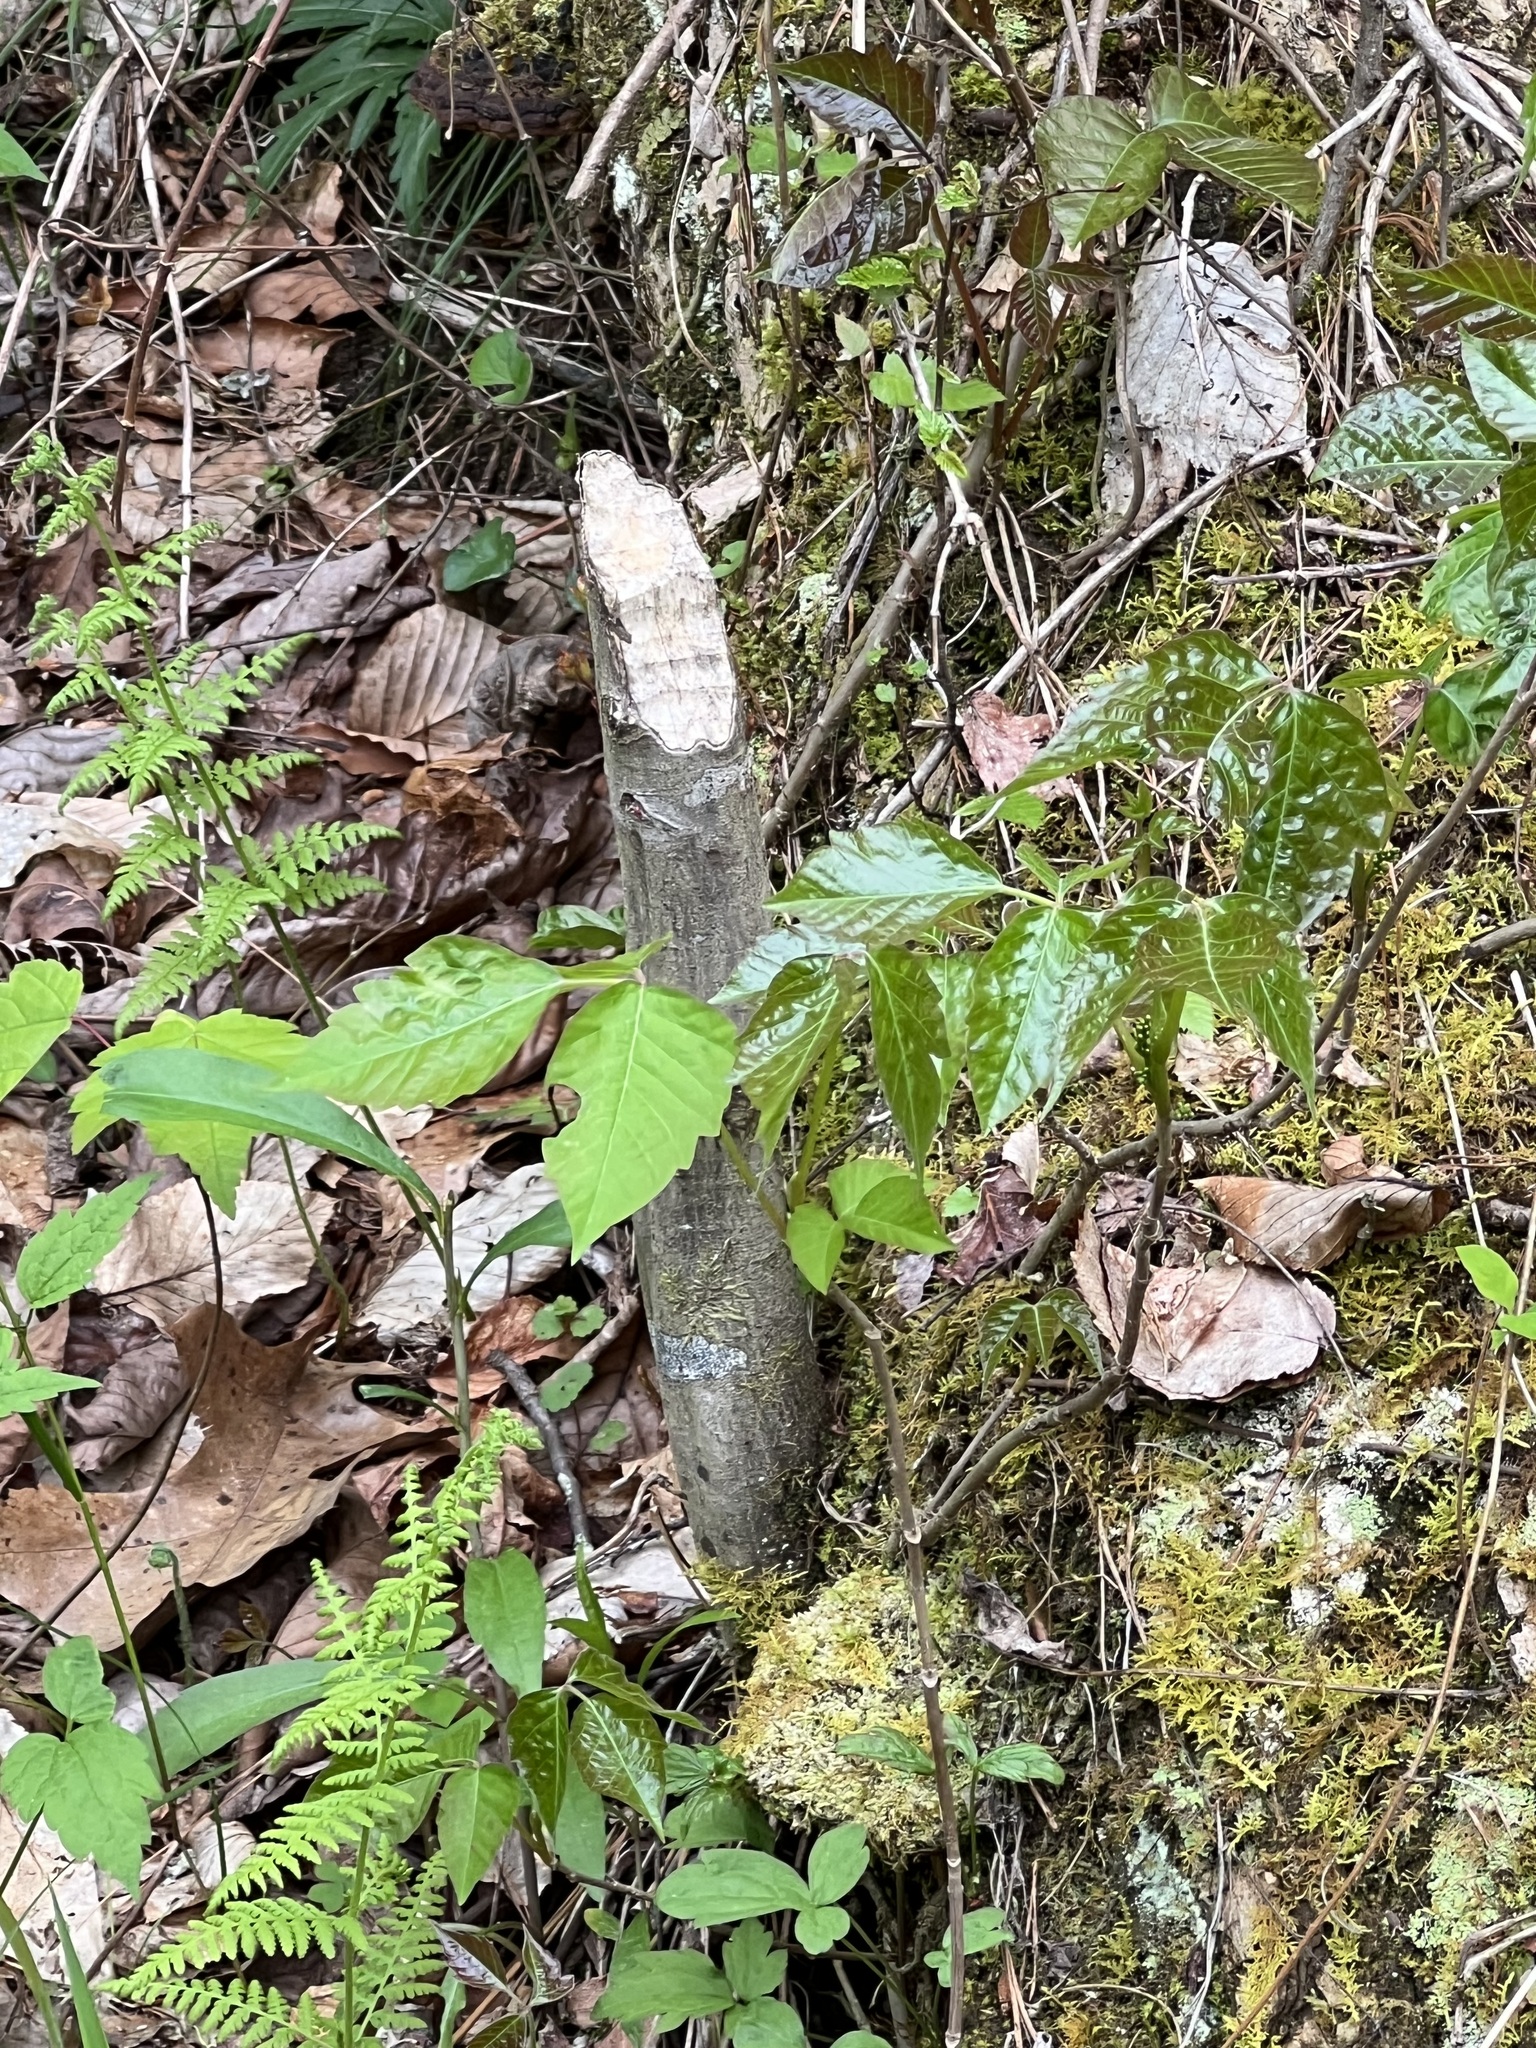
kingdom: Animalia
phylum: Chordata
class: Mammalia
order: Rodentia
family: Castoridae
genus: Castor
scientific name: Castor canadensis
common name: American beaver
